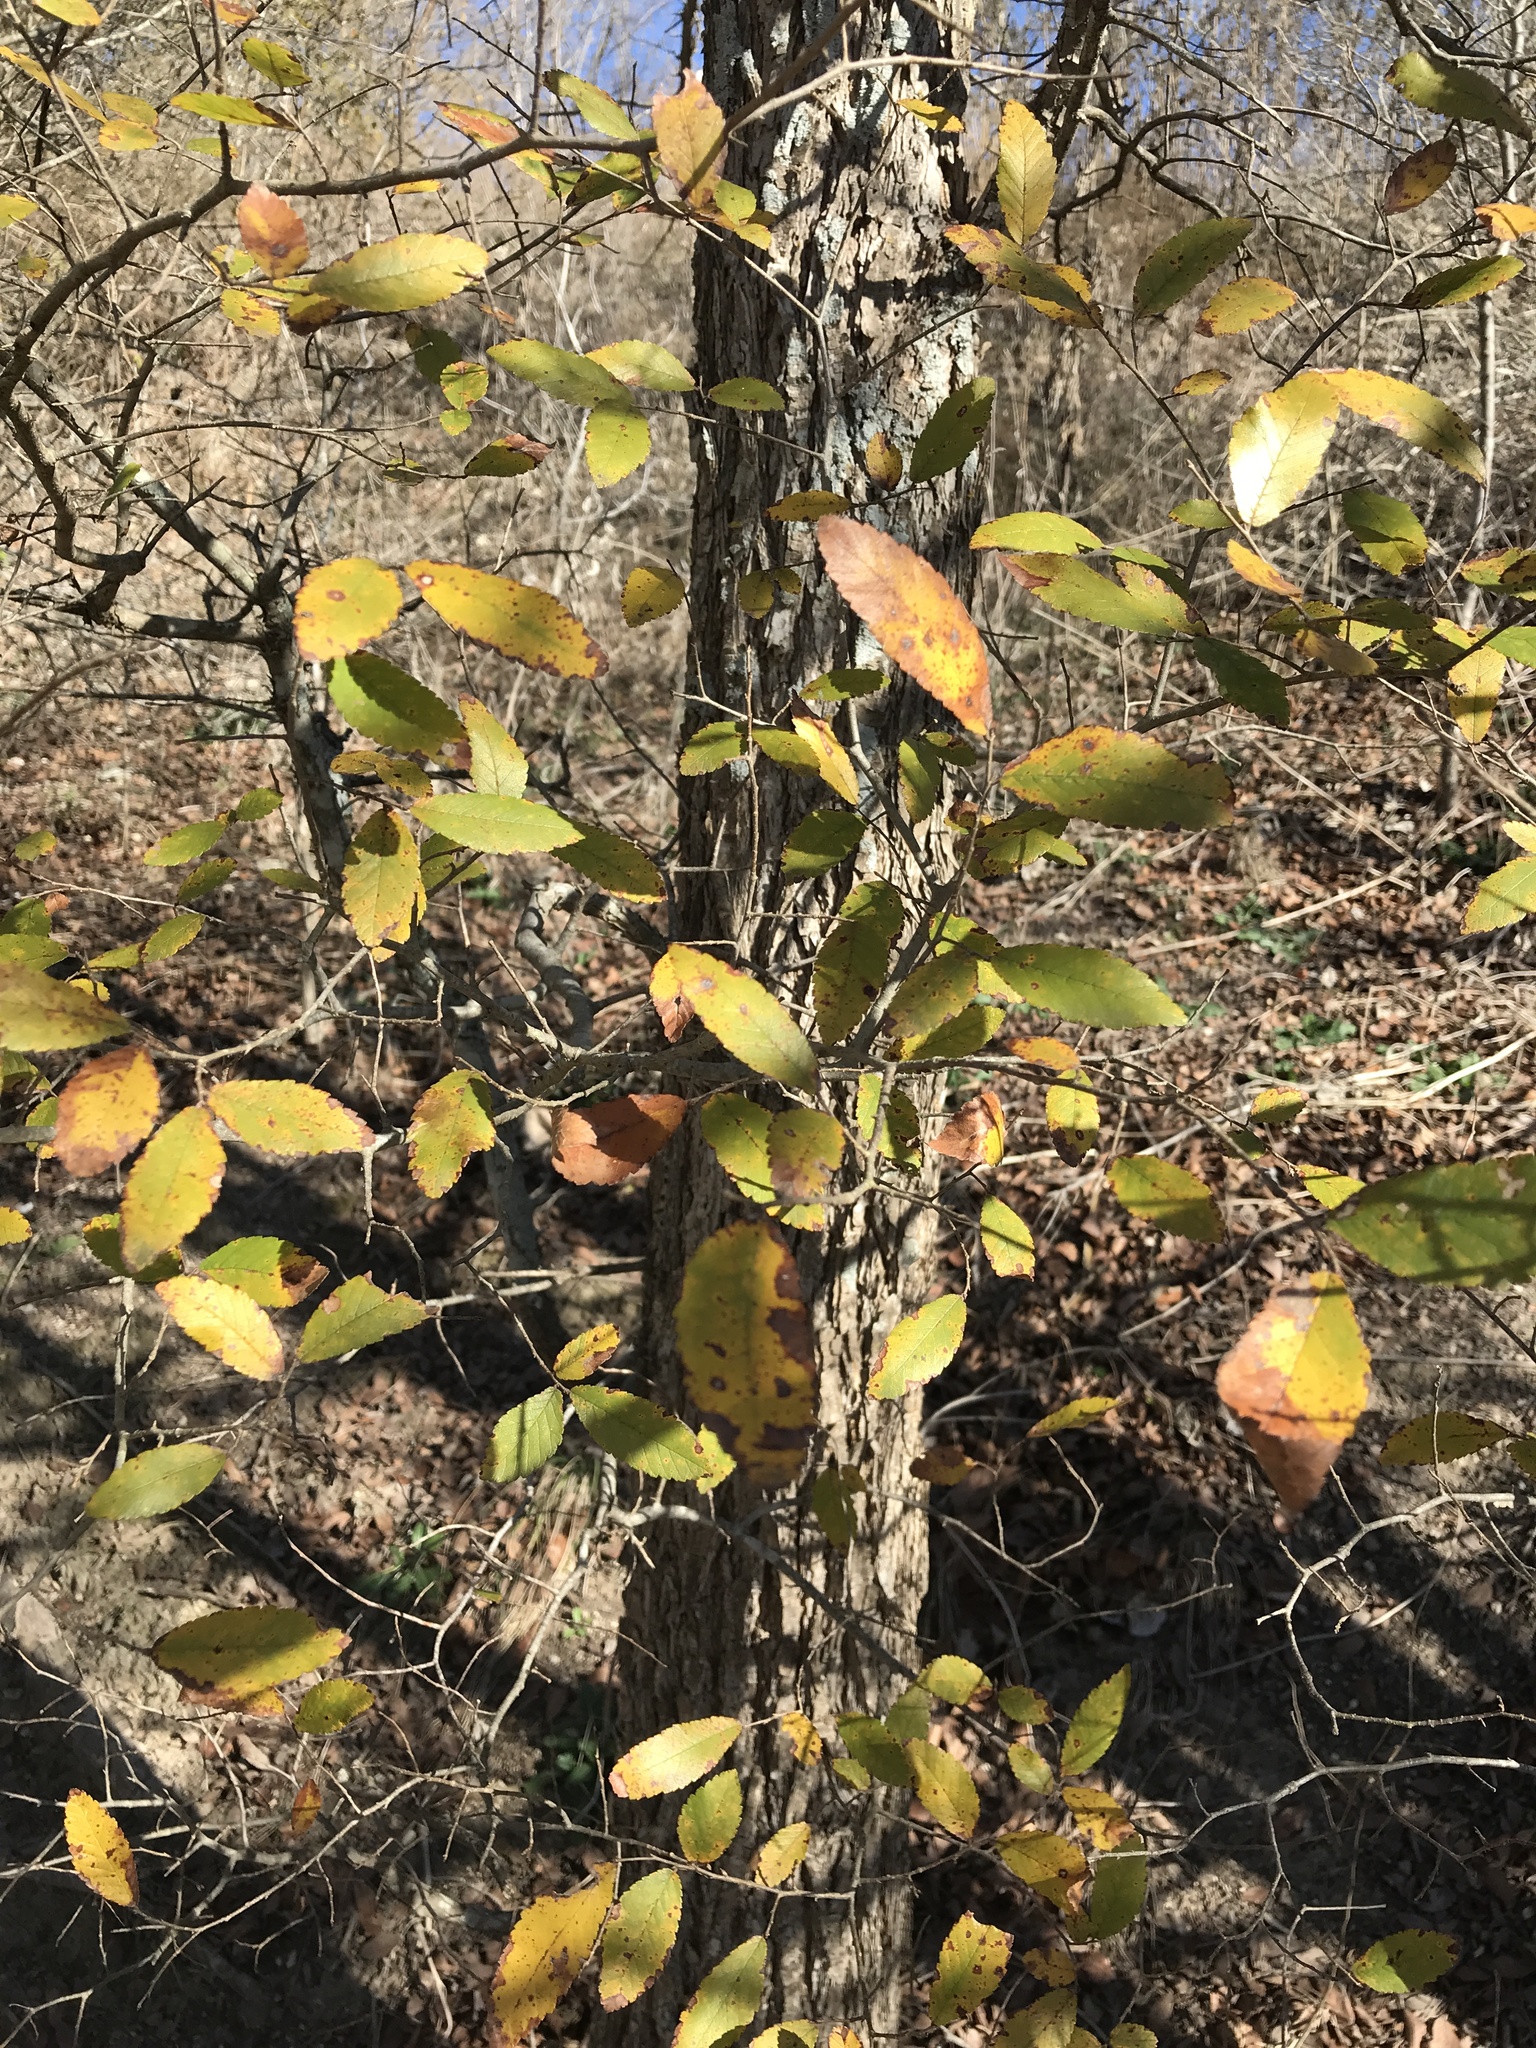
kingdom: Plantae
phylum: Tracheophyta
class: Magnoliopsida
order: Rosales
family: Ulmaceae
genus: Ulmus
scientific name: Ulmus crassifolia
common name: Basket elm
